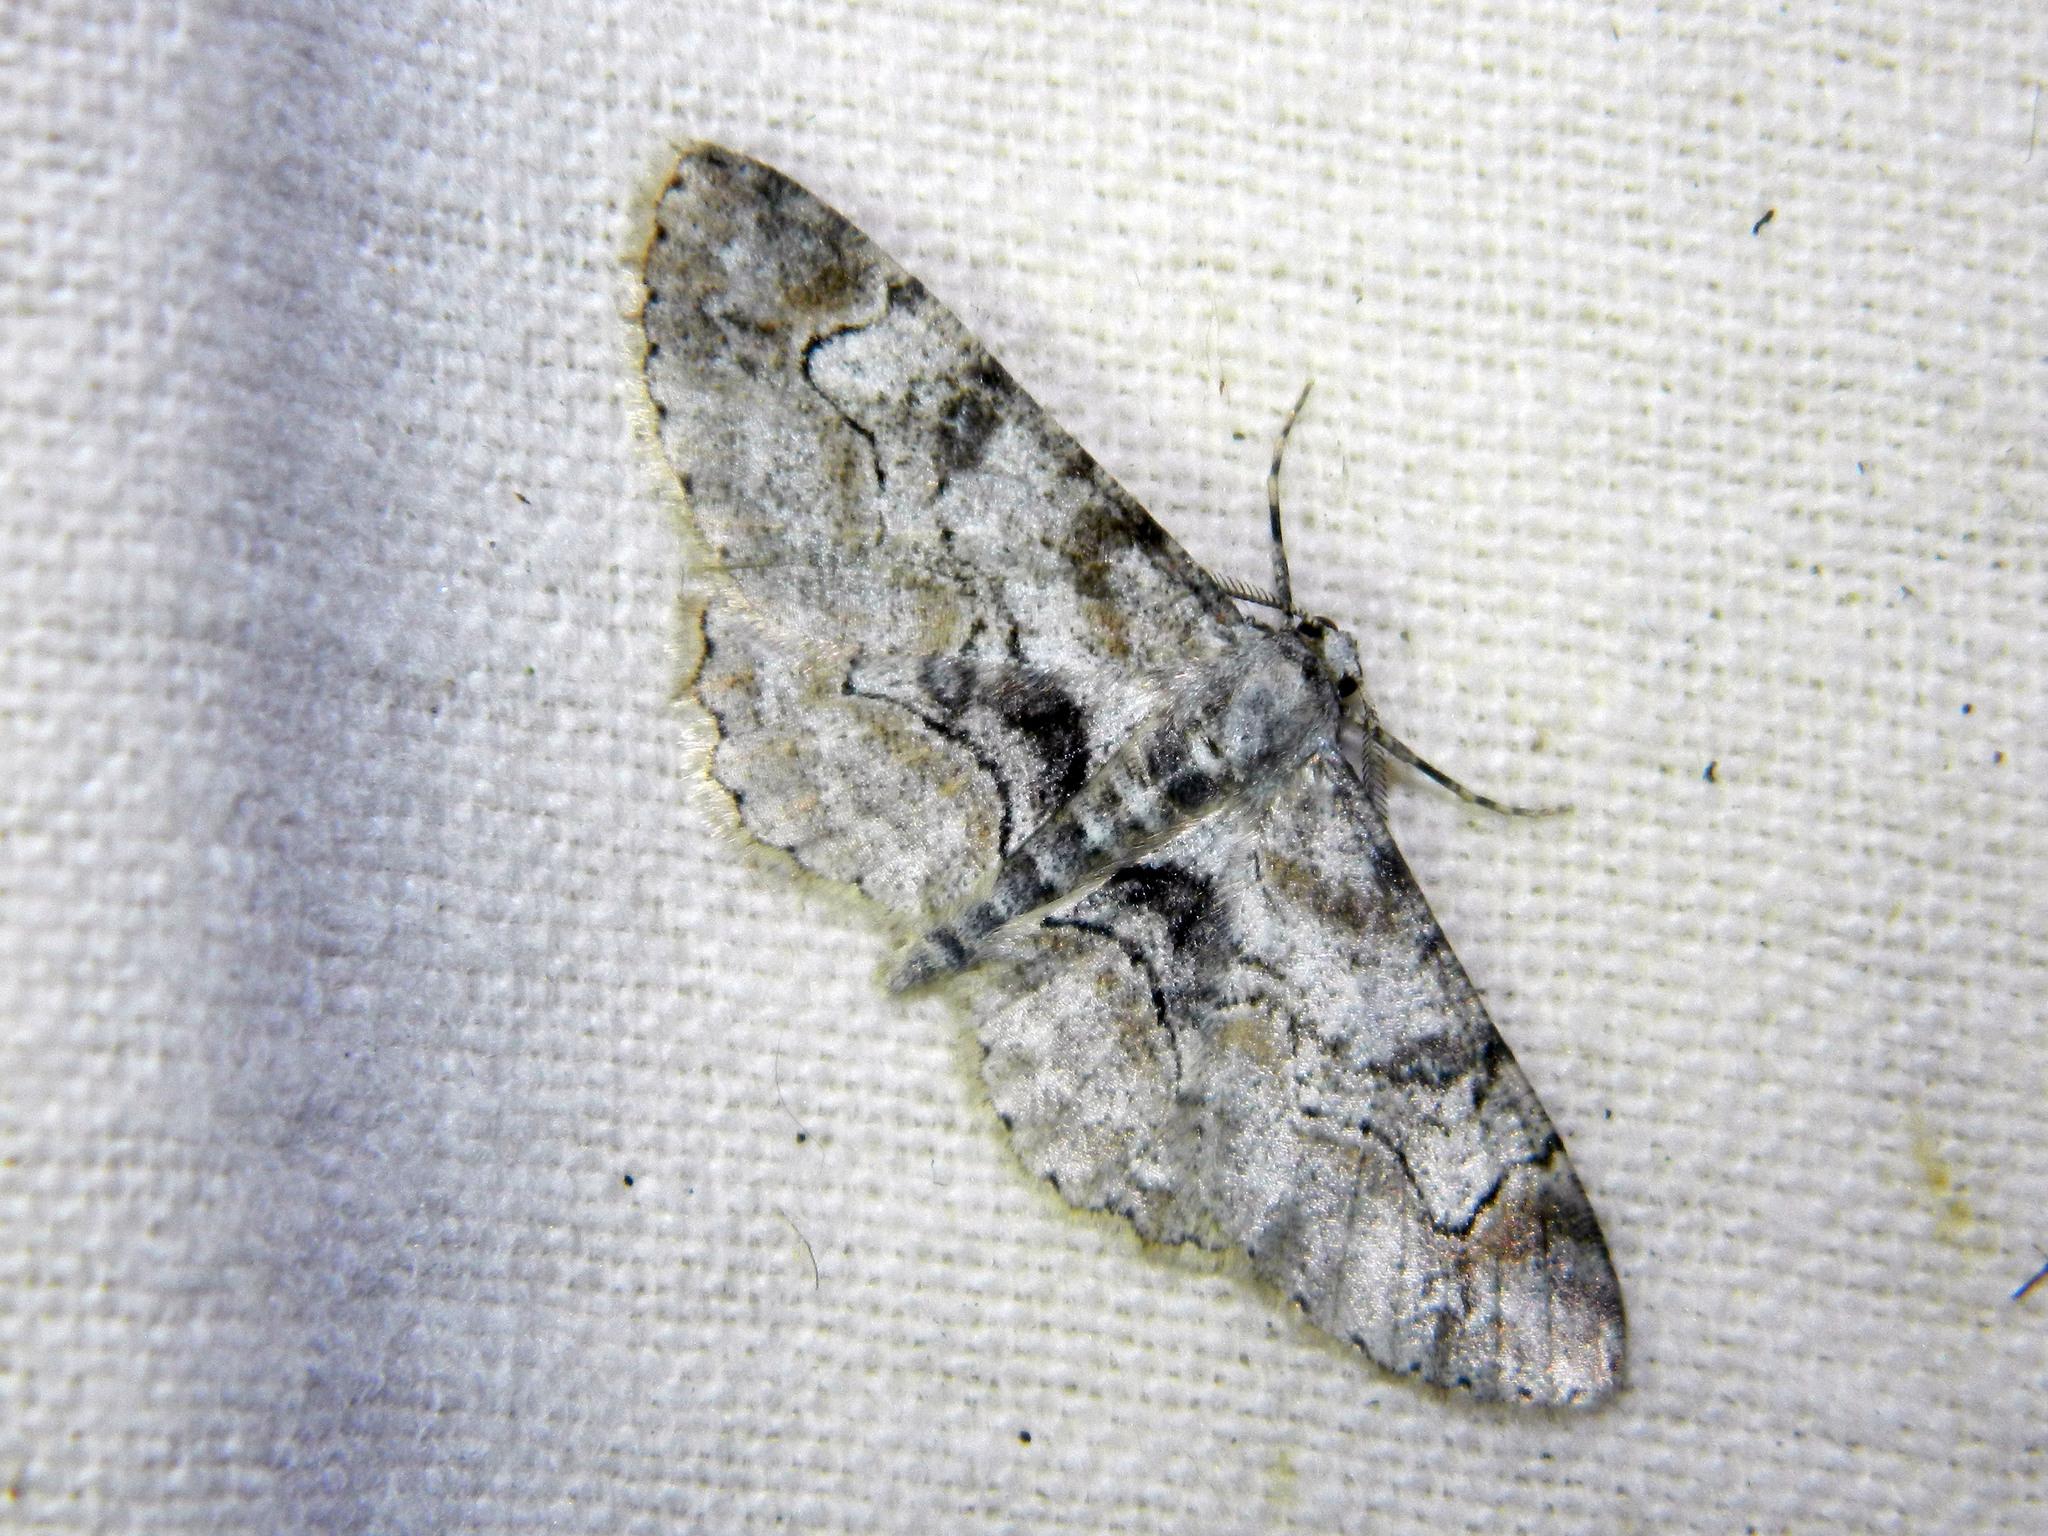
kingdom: Animalia
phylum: Arthropoda
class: Insecta
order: Lepidoptera
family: Geometridae
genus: Iridopsis
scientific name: Iridopsis larvaria
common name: Bent-line gray
